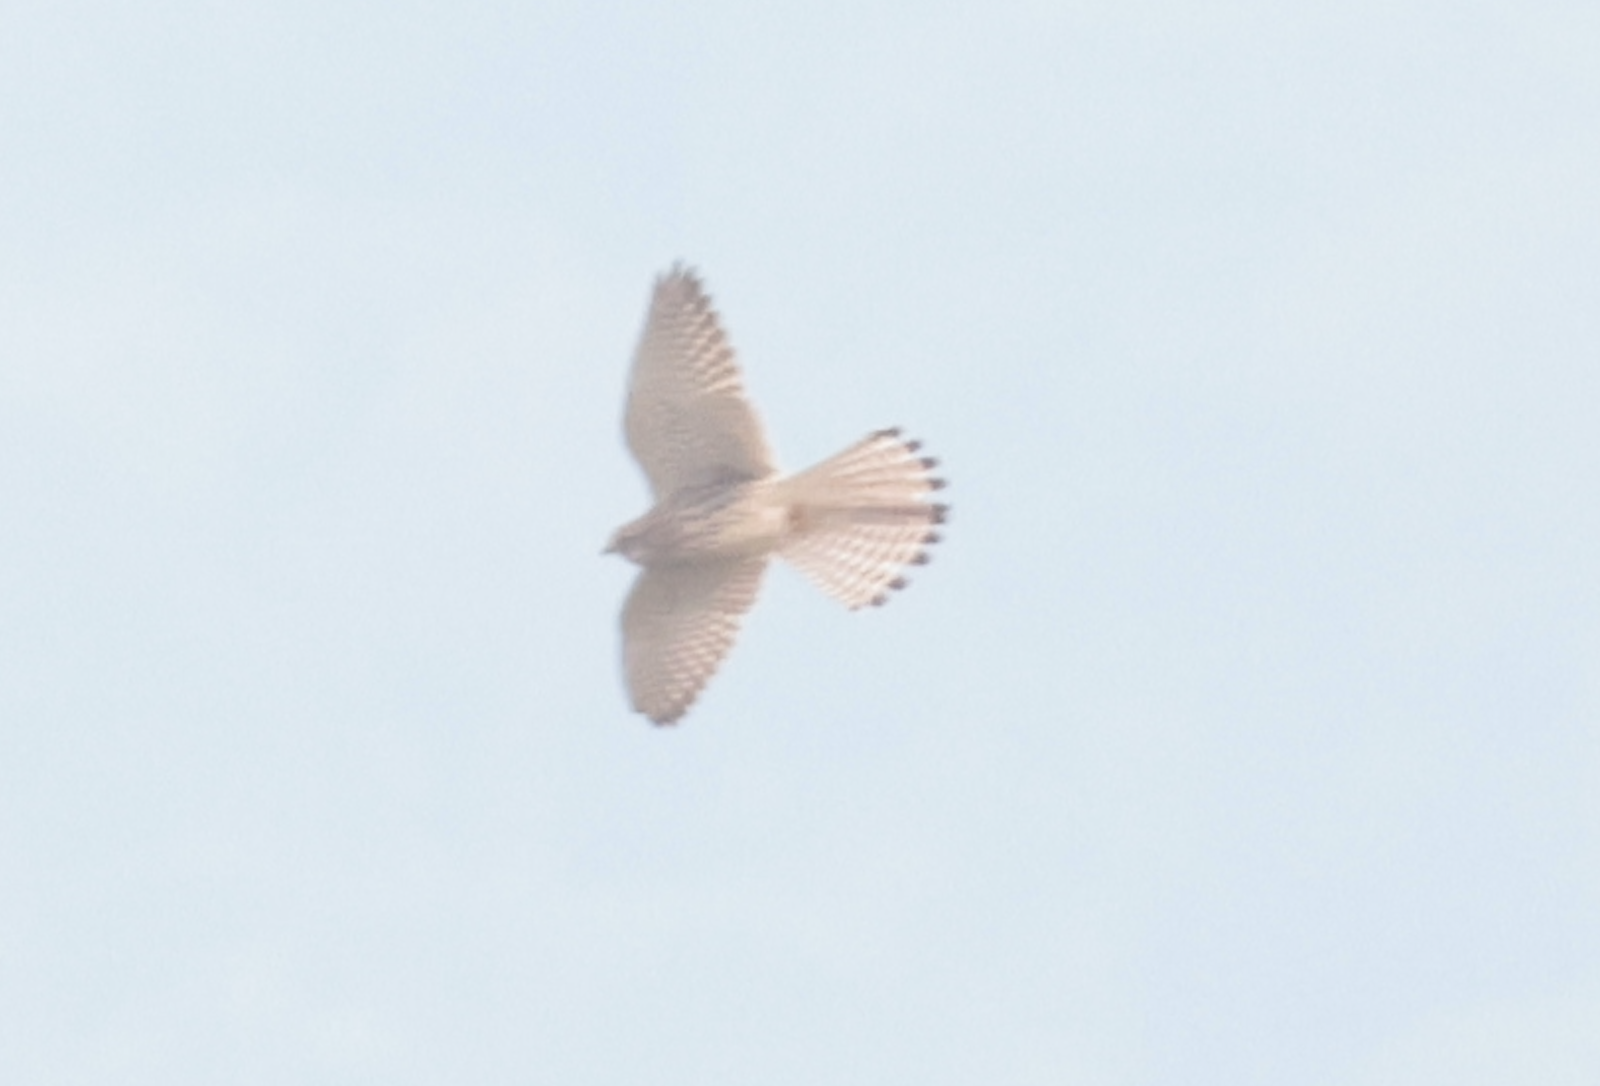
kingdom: Animalia
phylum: Chordata
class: Aves
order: Falconiformes
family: Falconidae
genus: Falco
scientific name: Falco tinnunculus
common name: Common kestrel
